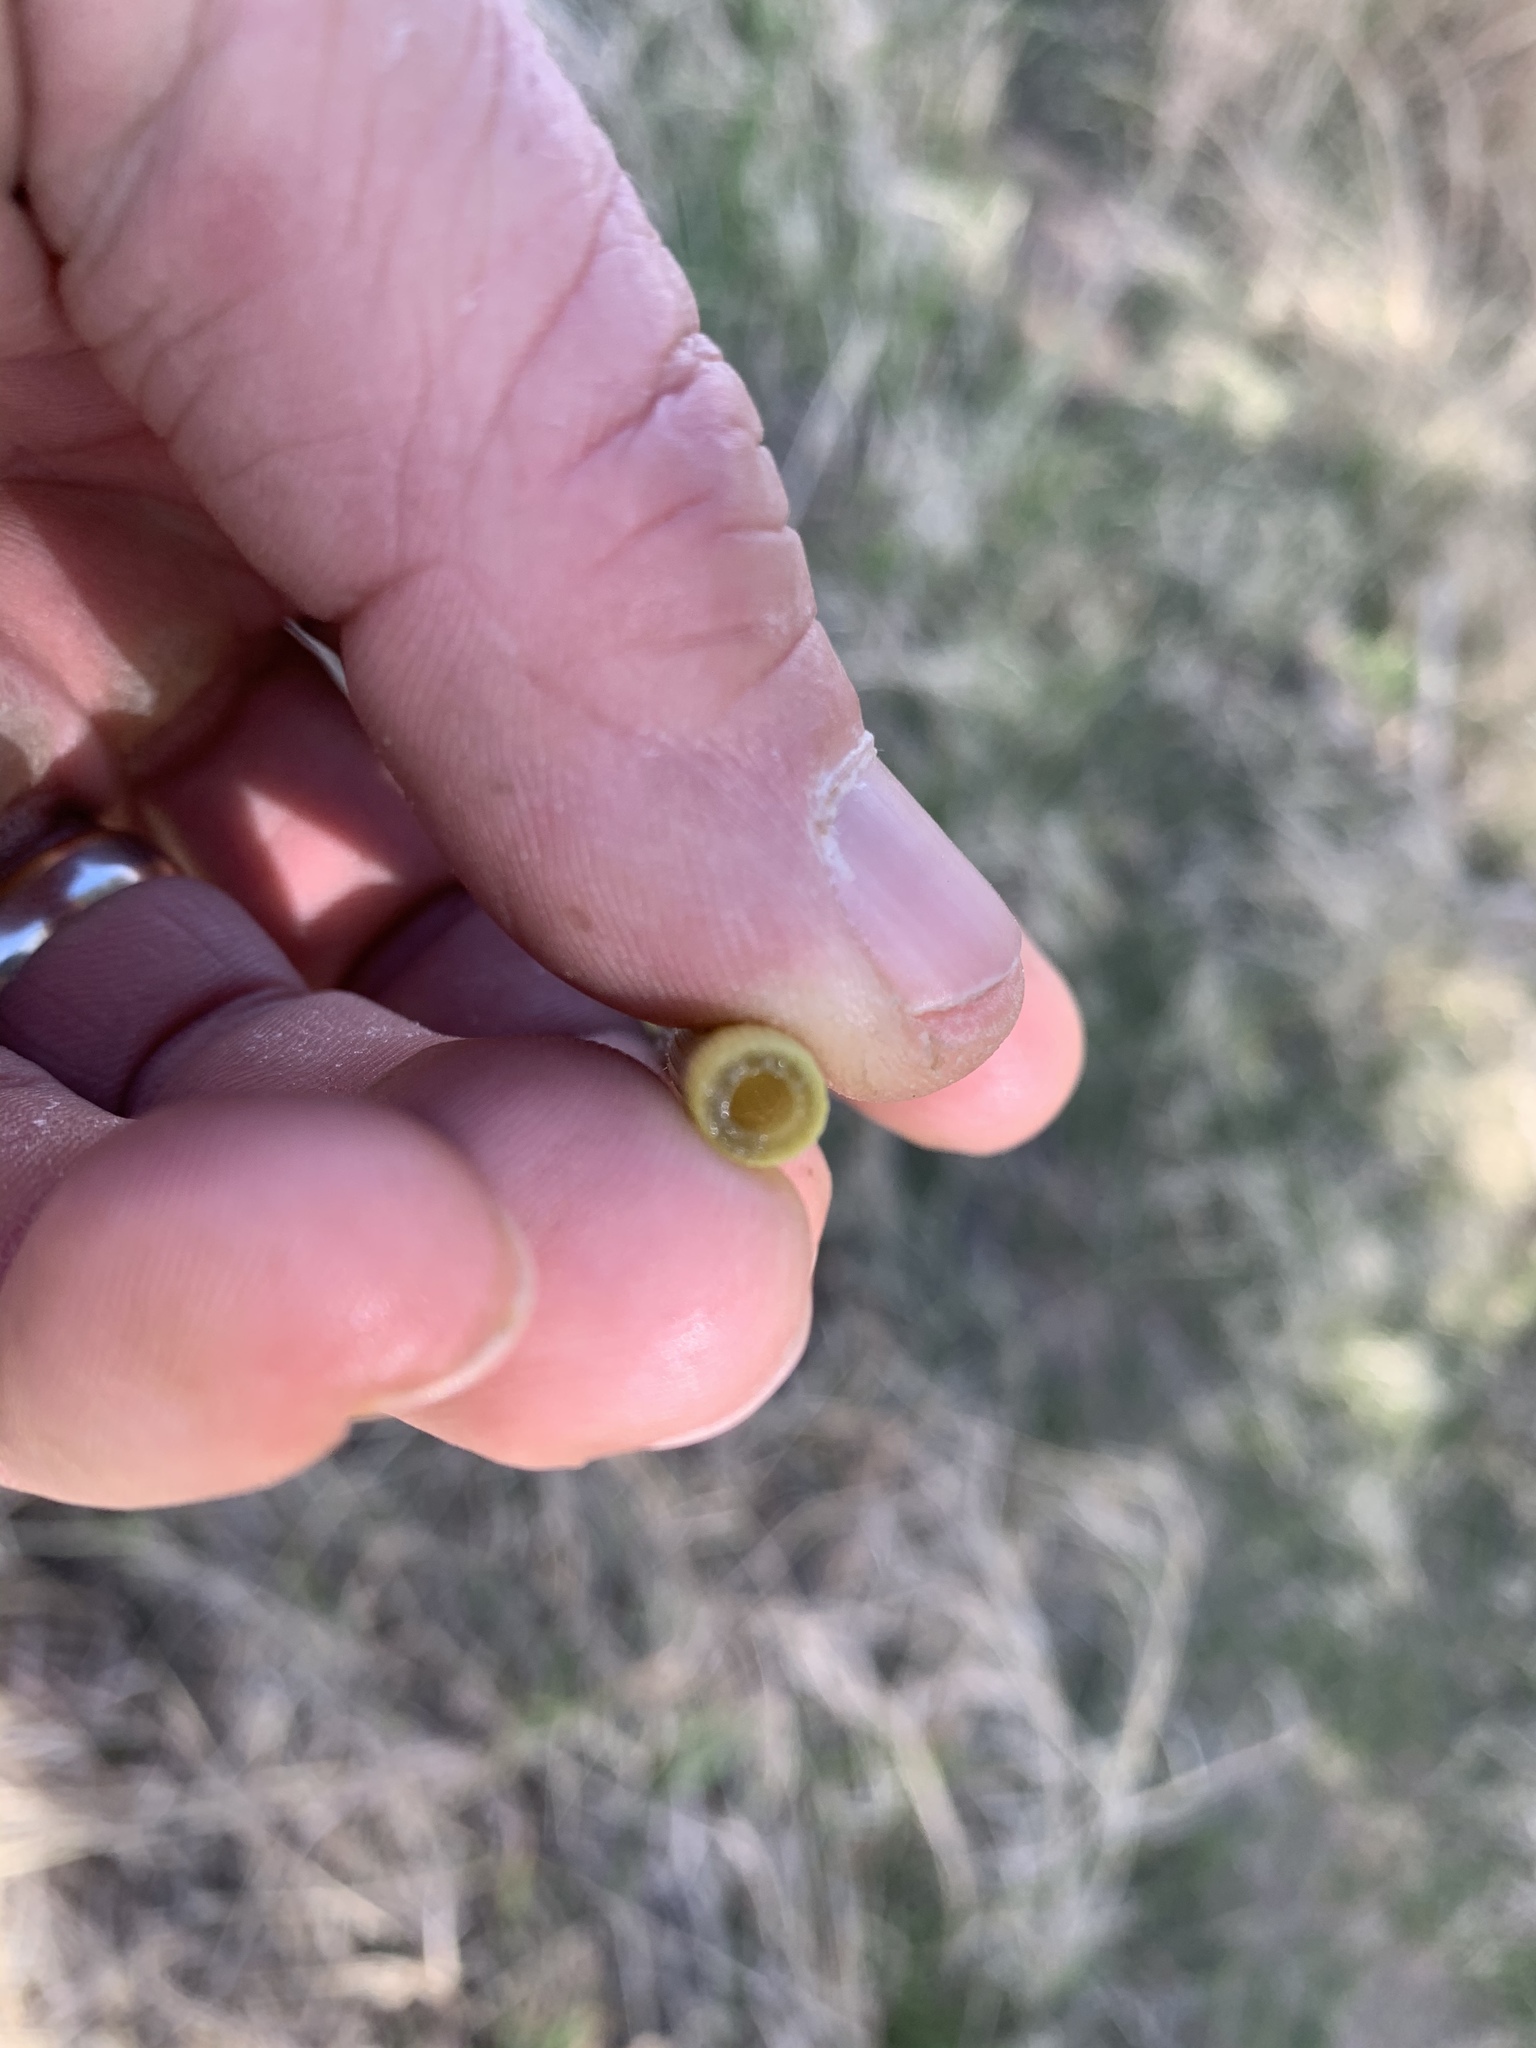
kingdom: Plantae
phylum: Tracheophyta
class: Polypodiopsida
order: Equisetales
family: Equisetaceae
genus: Equisetum
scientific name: Equisetum praealtum
